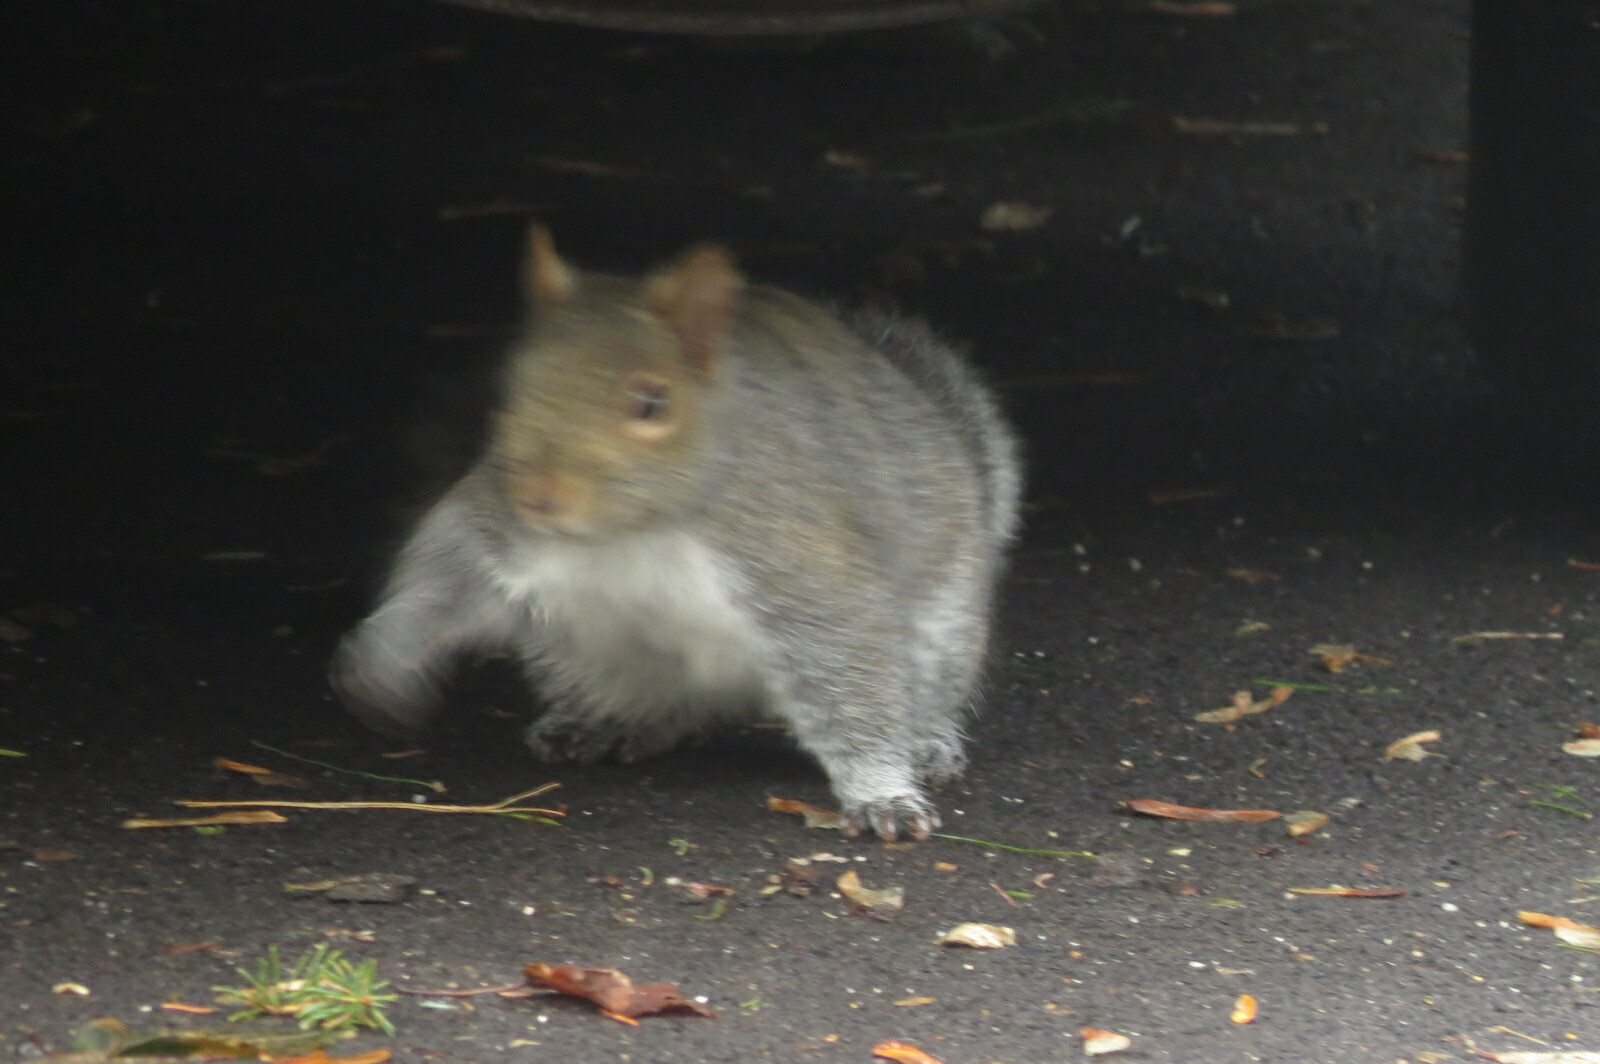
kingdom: Animalia
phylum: Chordata
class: Mammalia
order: Rodentia
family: Sciuridae
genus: Sciurus
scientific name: Sciurus carolinensis
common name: Eastern gray squirrel
